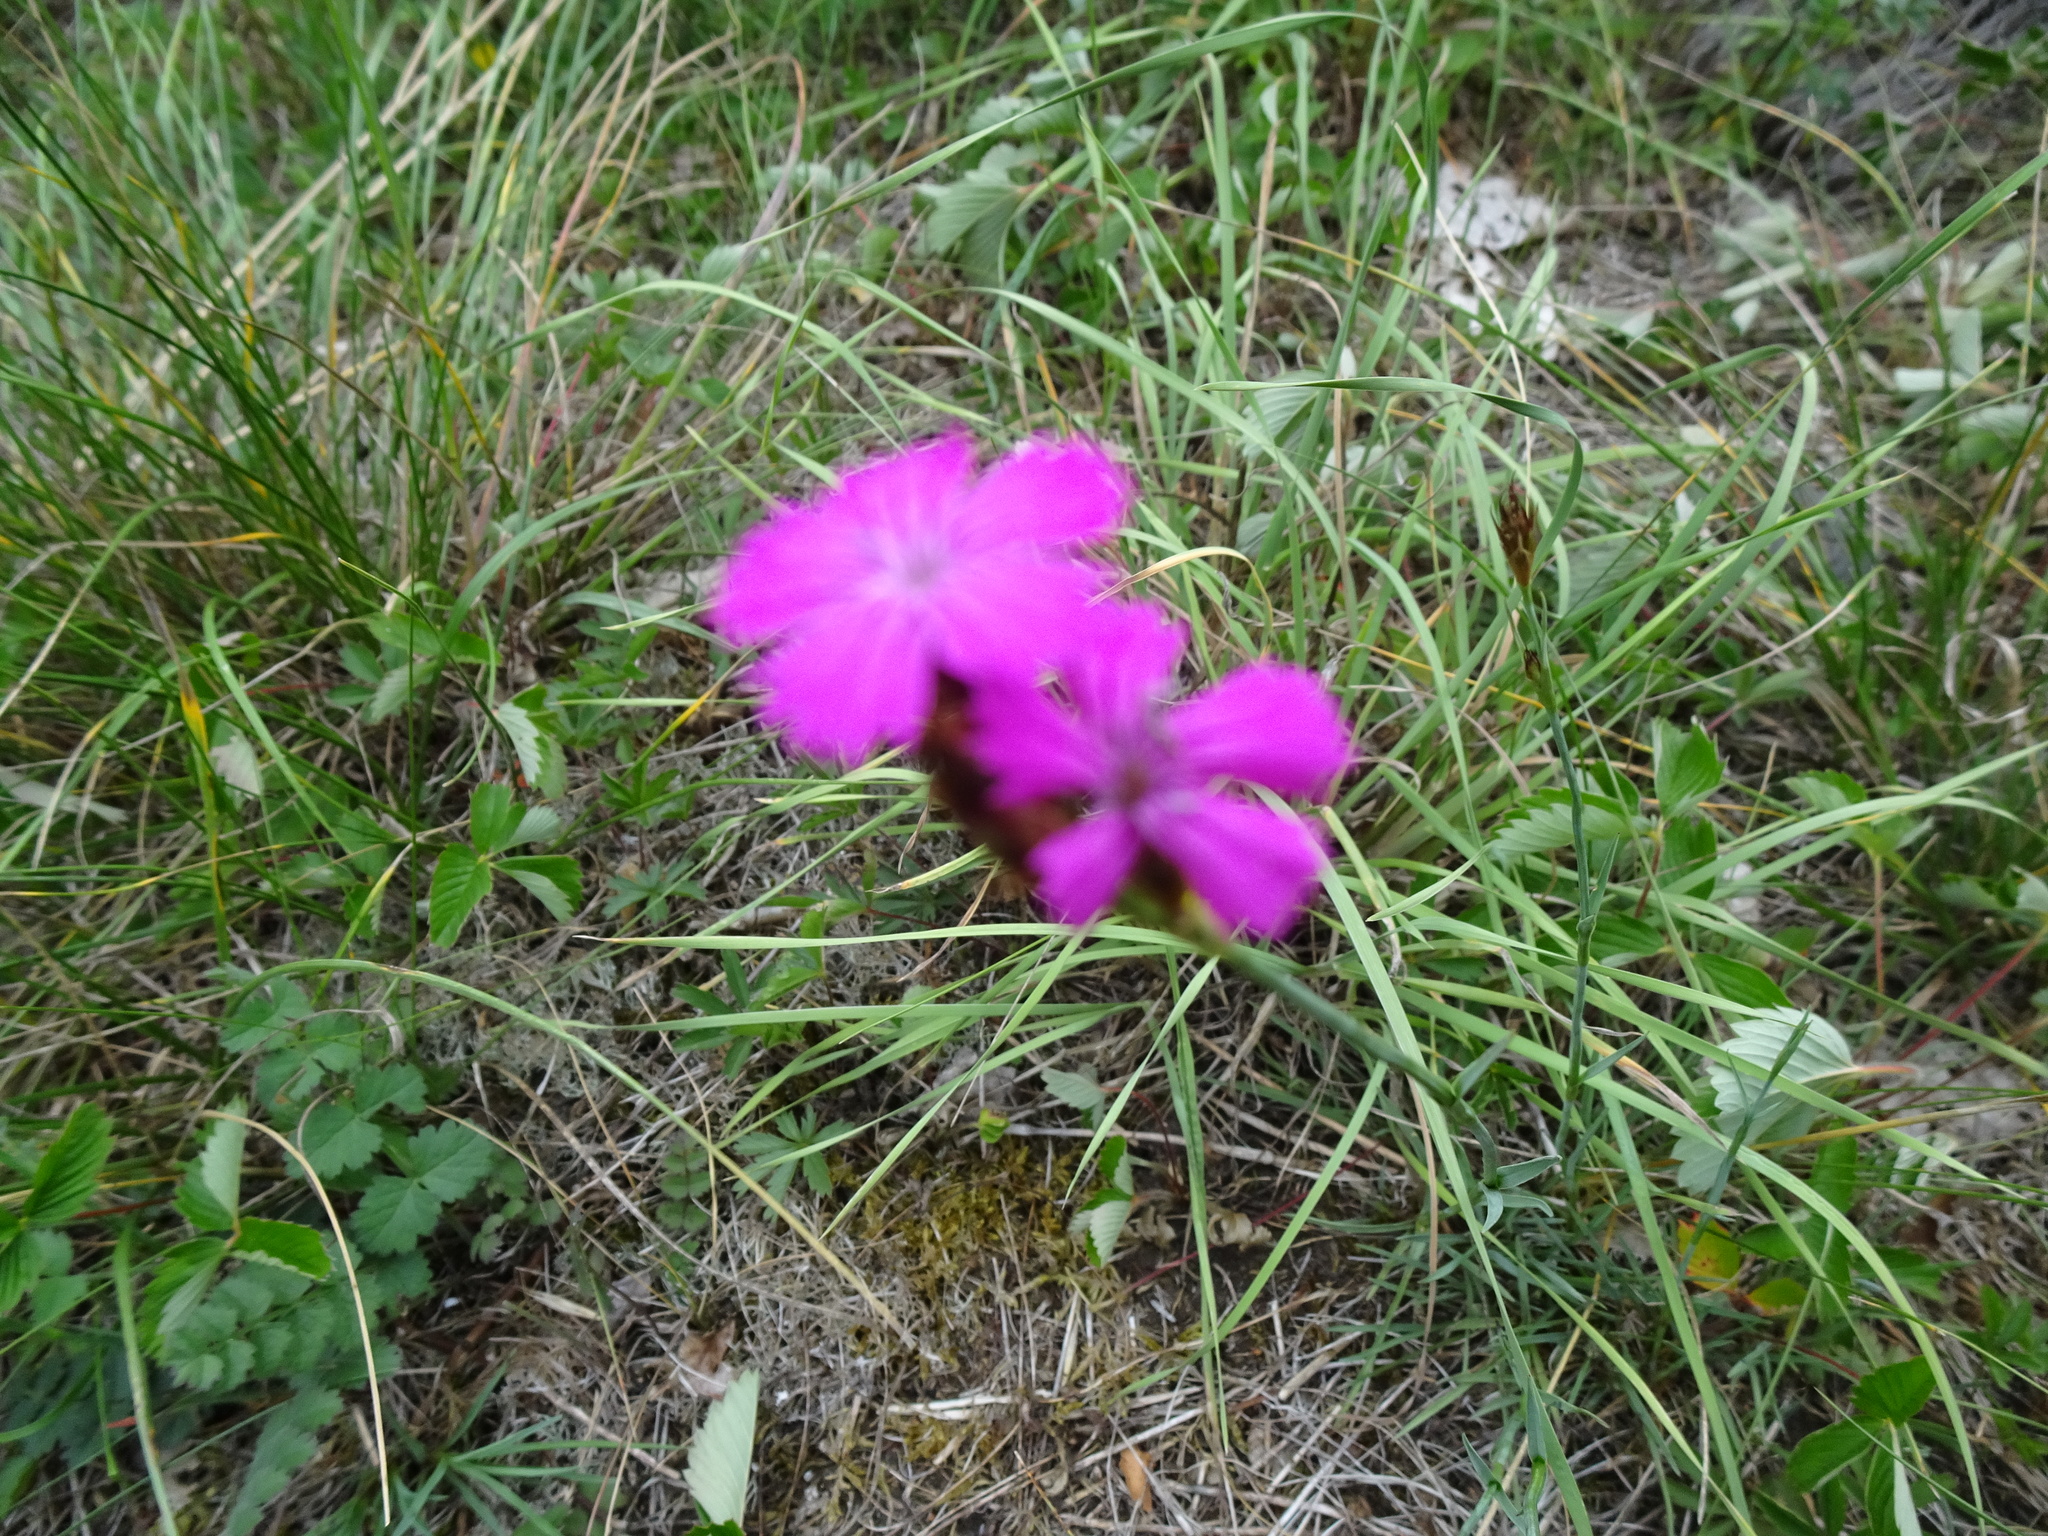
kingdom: Plantae
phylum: Tracheophyta
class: Magnoliopsida
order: Caryophyllales
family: Caryophyllaceae
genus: Dianthus
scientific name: Dianthus carthusianorum
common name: Carthusian pink
